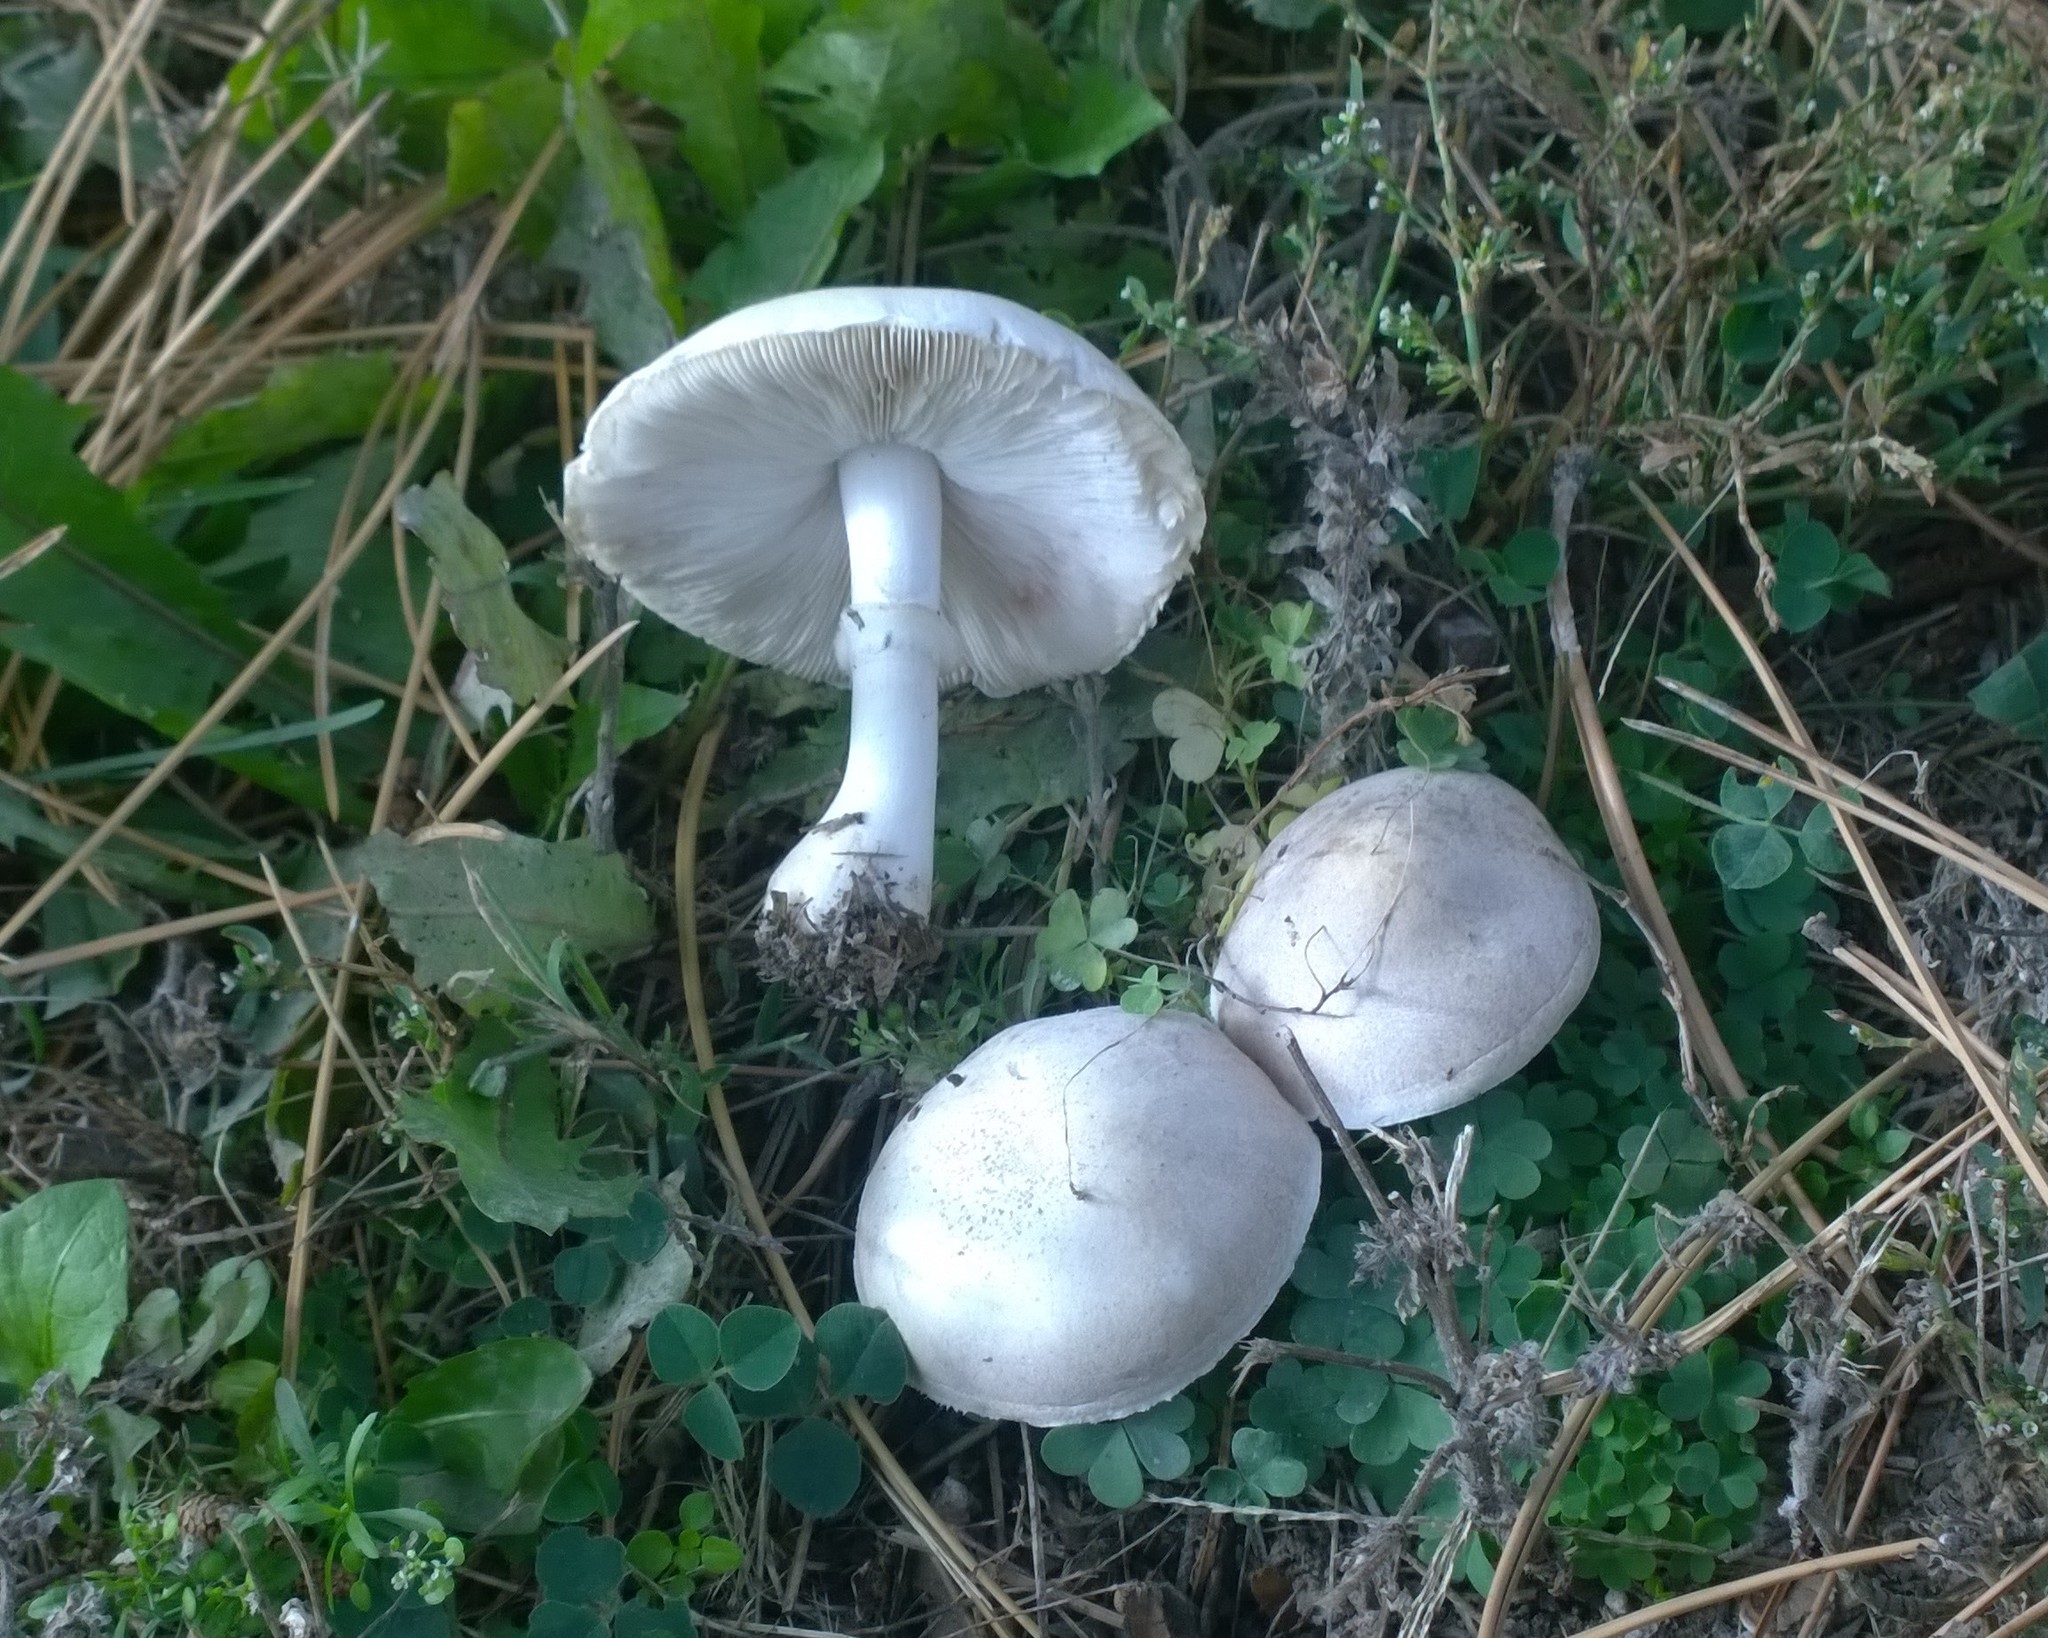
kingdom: Fungi
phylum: Basidiomycota
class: Agaricomycetes
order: Agaricales
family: Agaricaceae
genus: Leucoagaricus
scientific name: Leucoagaricus leucothites
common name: White dapperling
